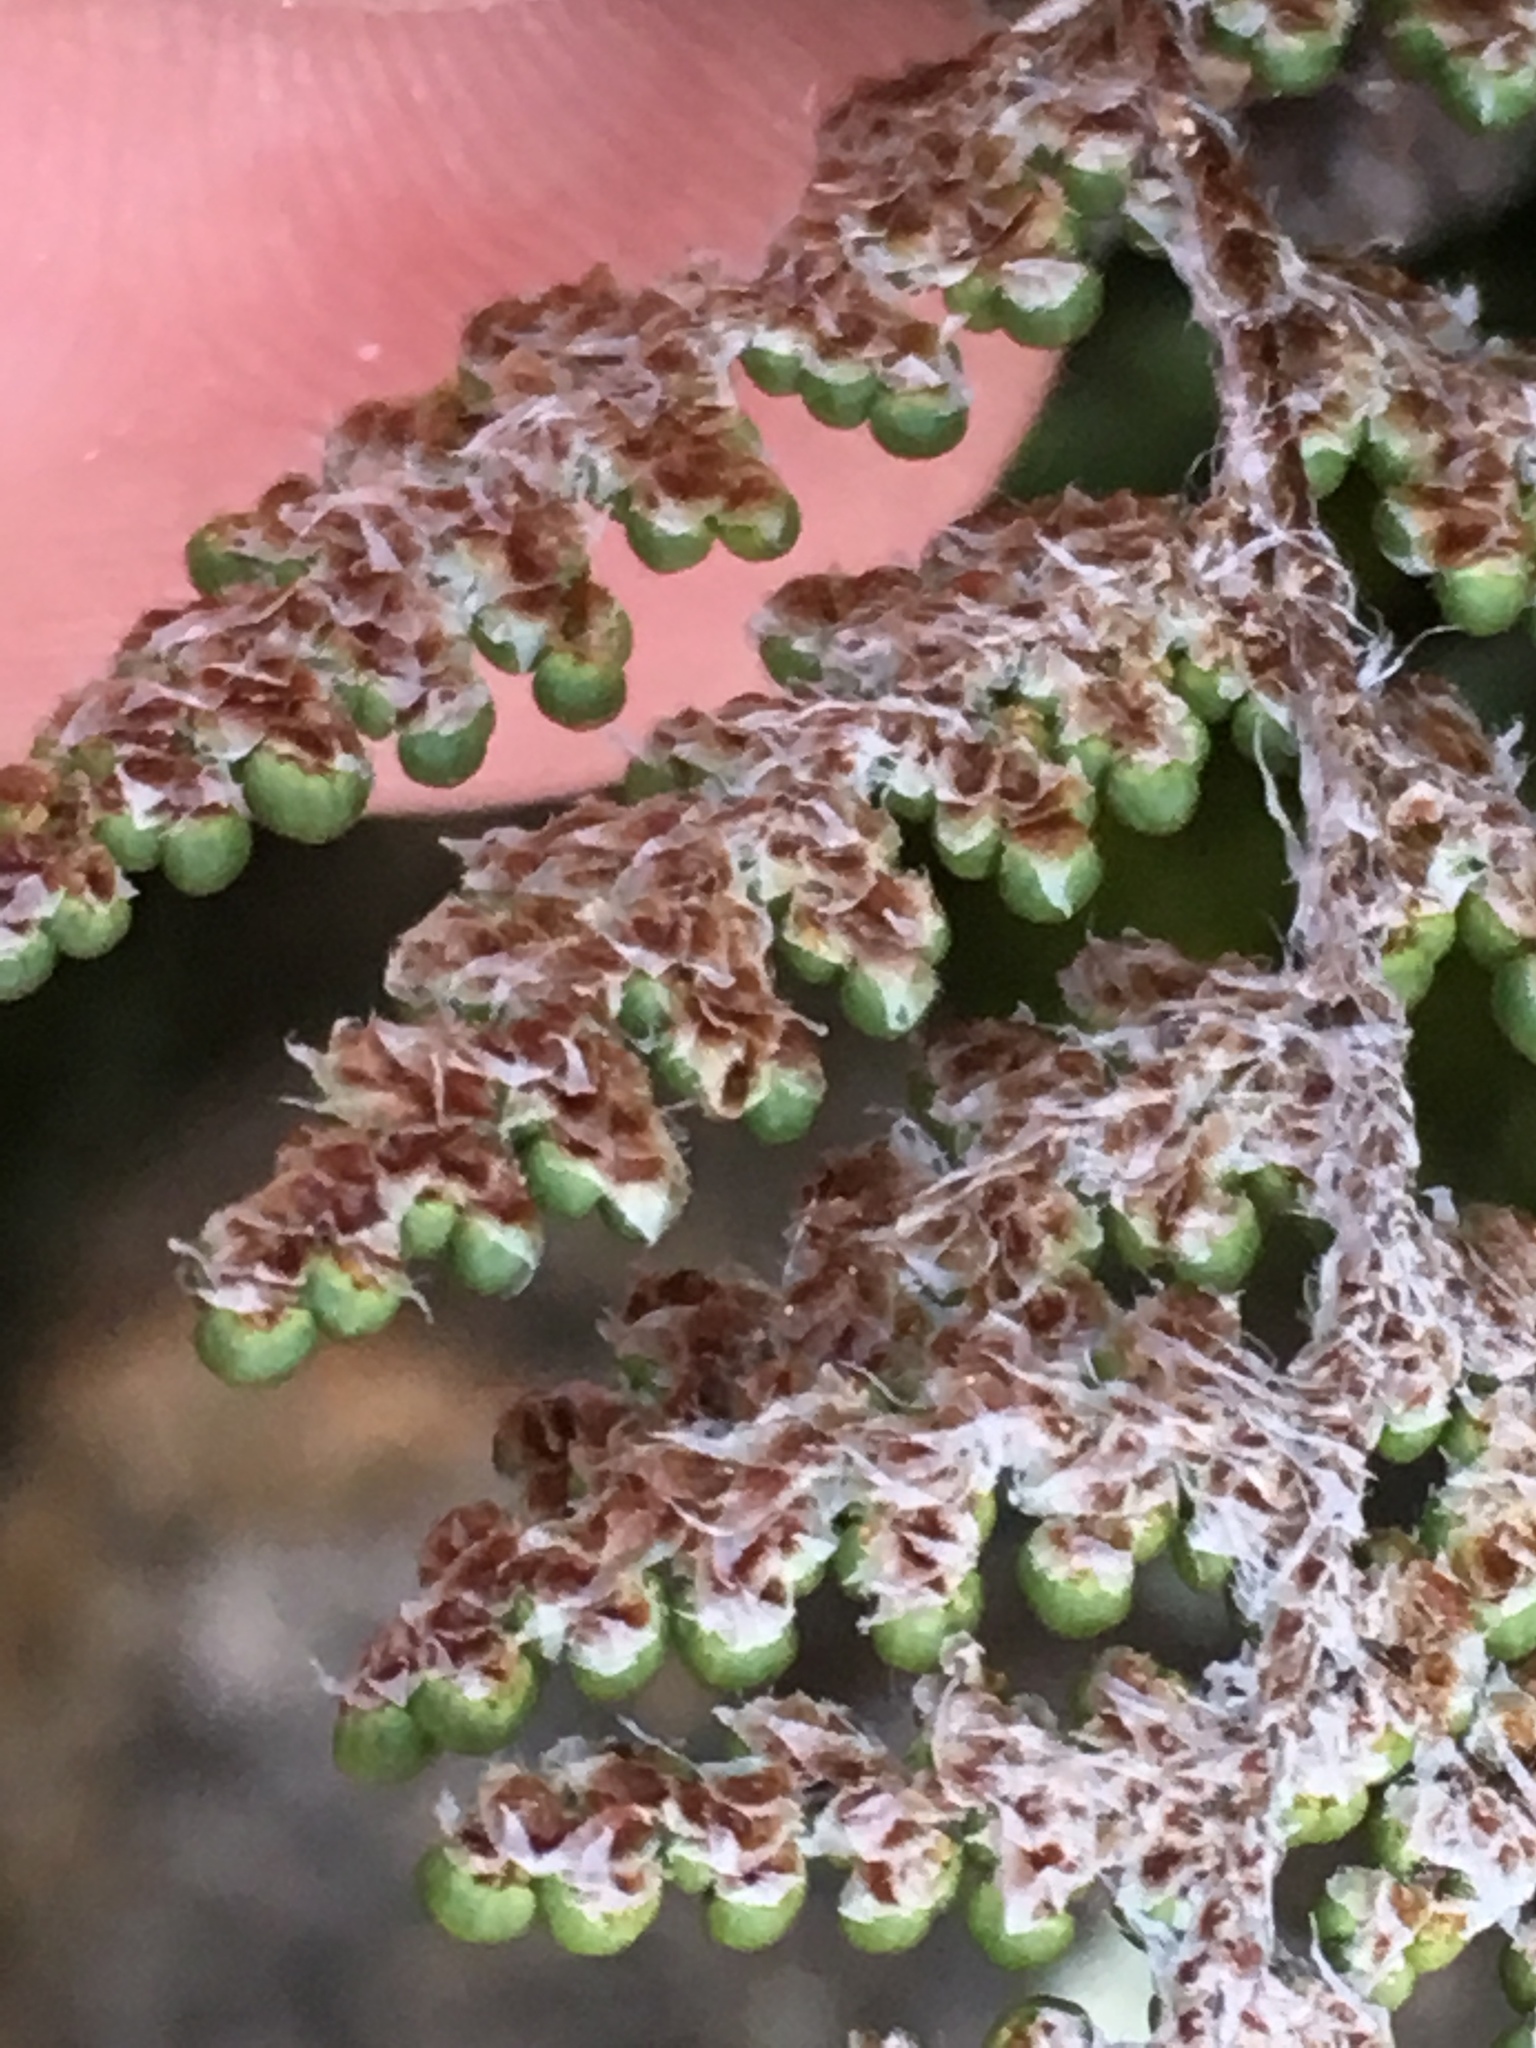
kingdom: Plantae
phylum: Tracheophyta
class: Polypodiopsida
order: Polypodiales
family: Pteridaceae
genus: Myriopteris
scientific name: Myriopteris covillei
